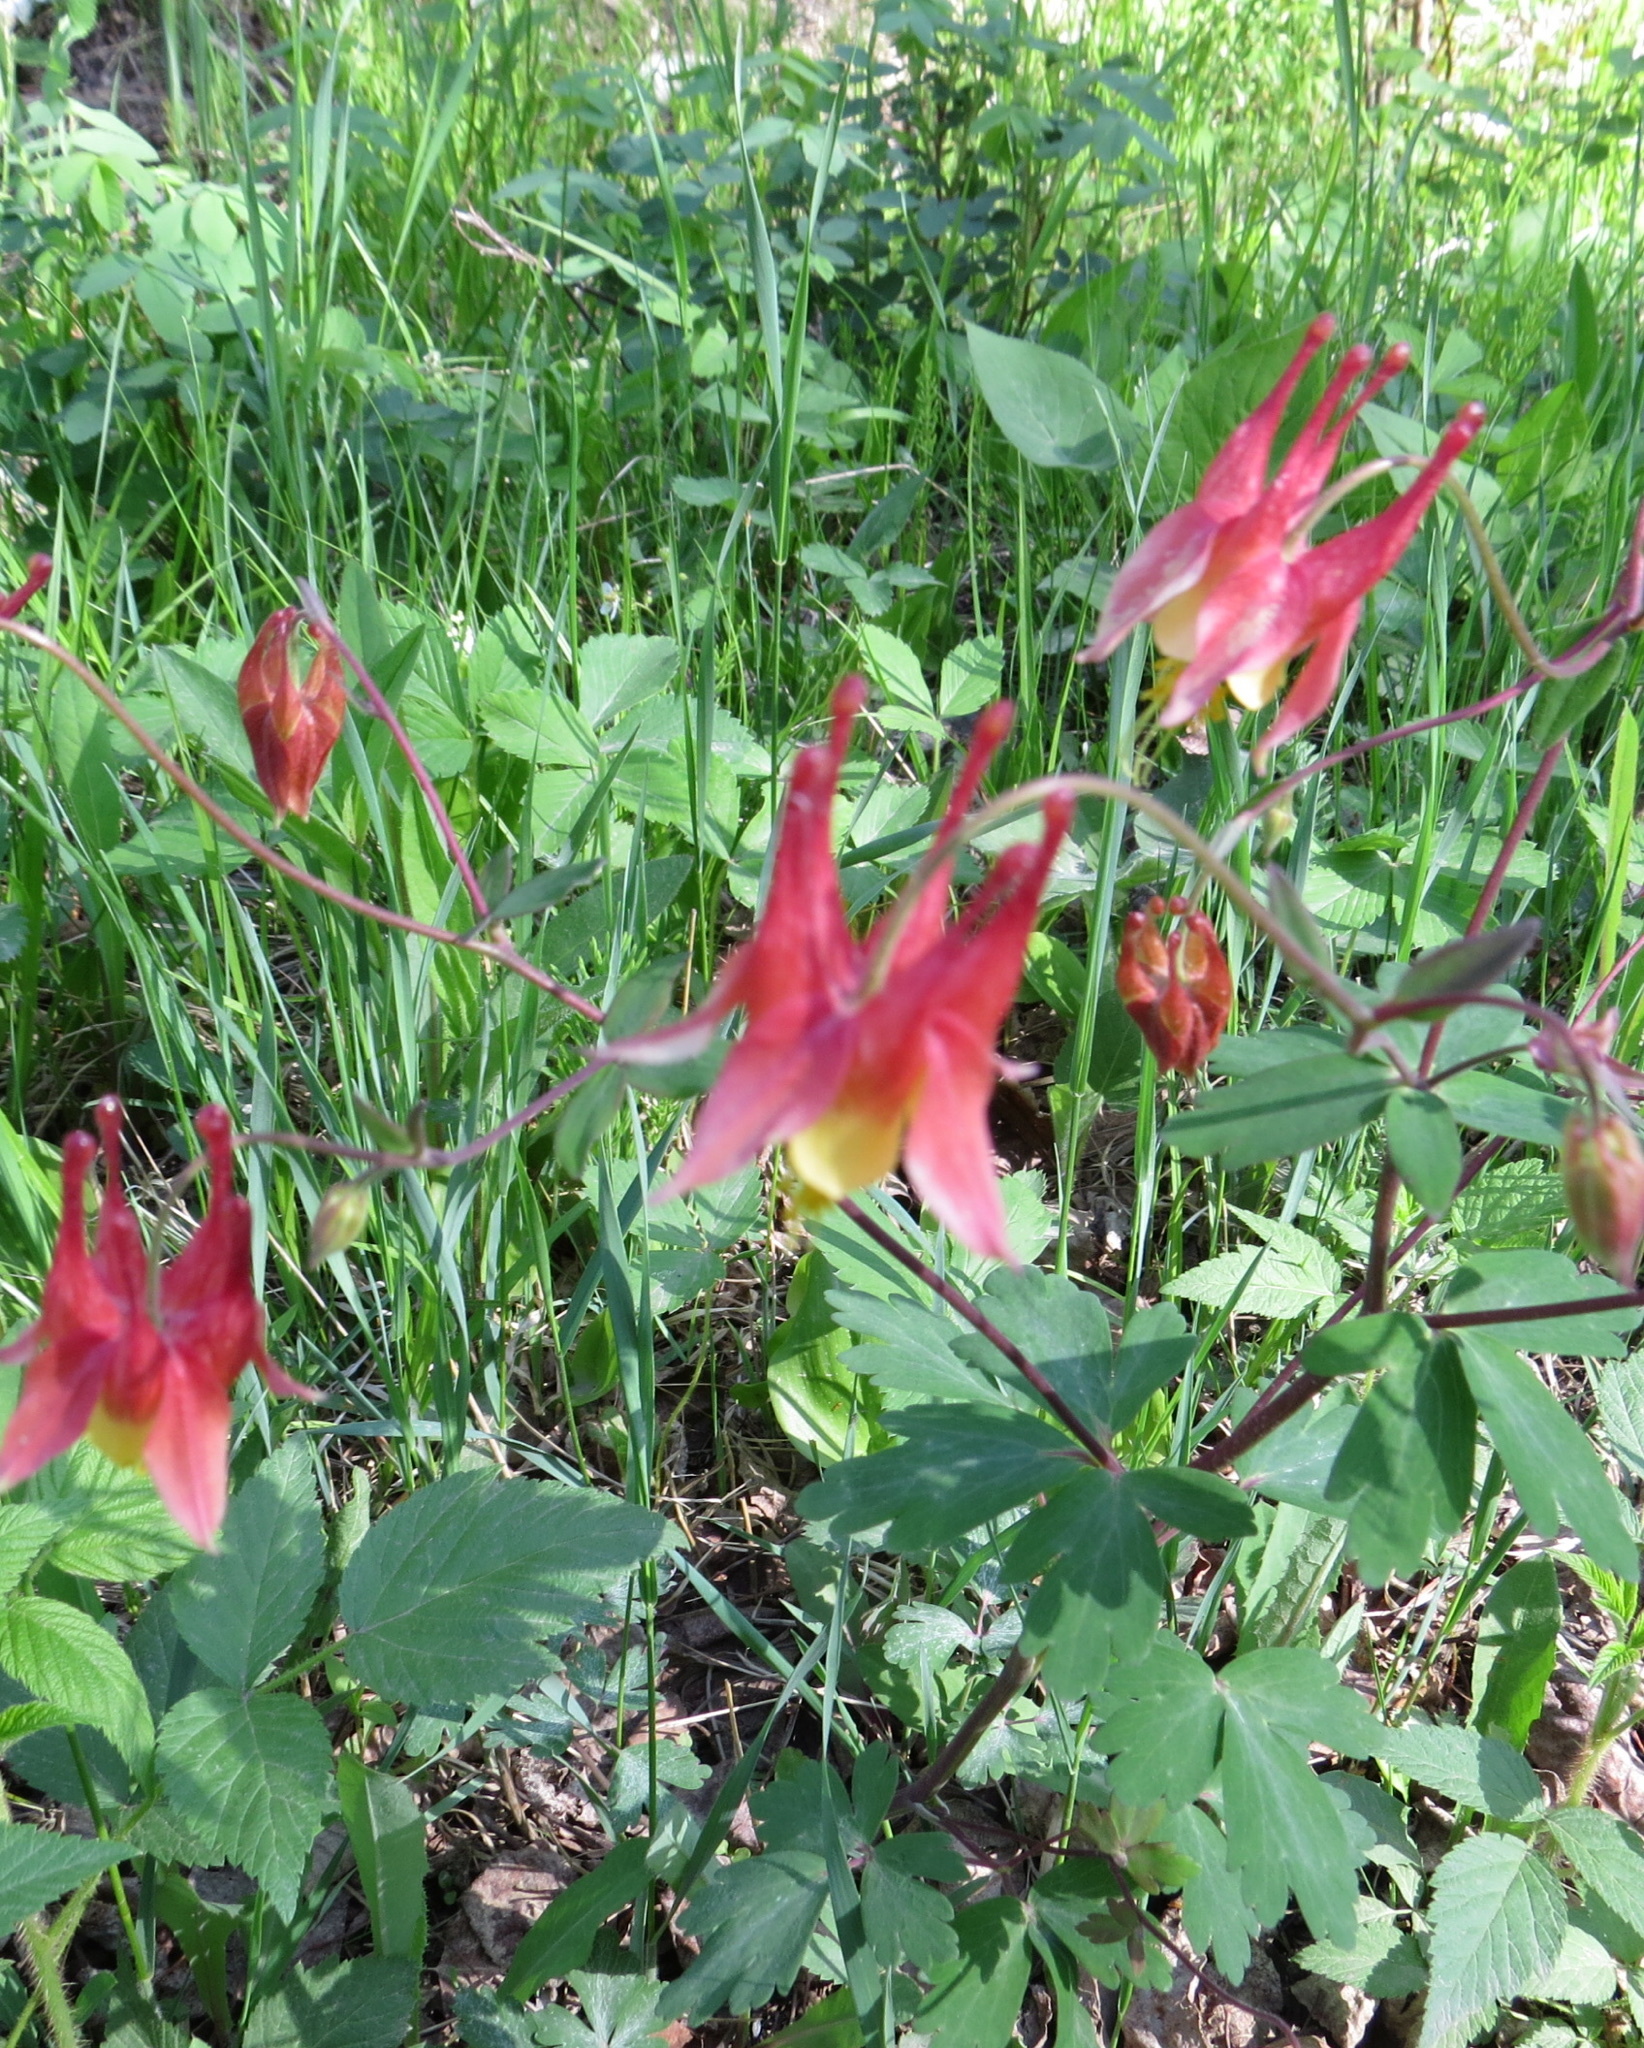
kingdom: Plantae
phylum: Tracheophyta
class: Magnoliopsida
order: Ranunculales
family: Ranunculaceae
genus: Aquilegia
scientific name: Aquilegia canadensis
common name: American columbine
